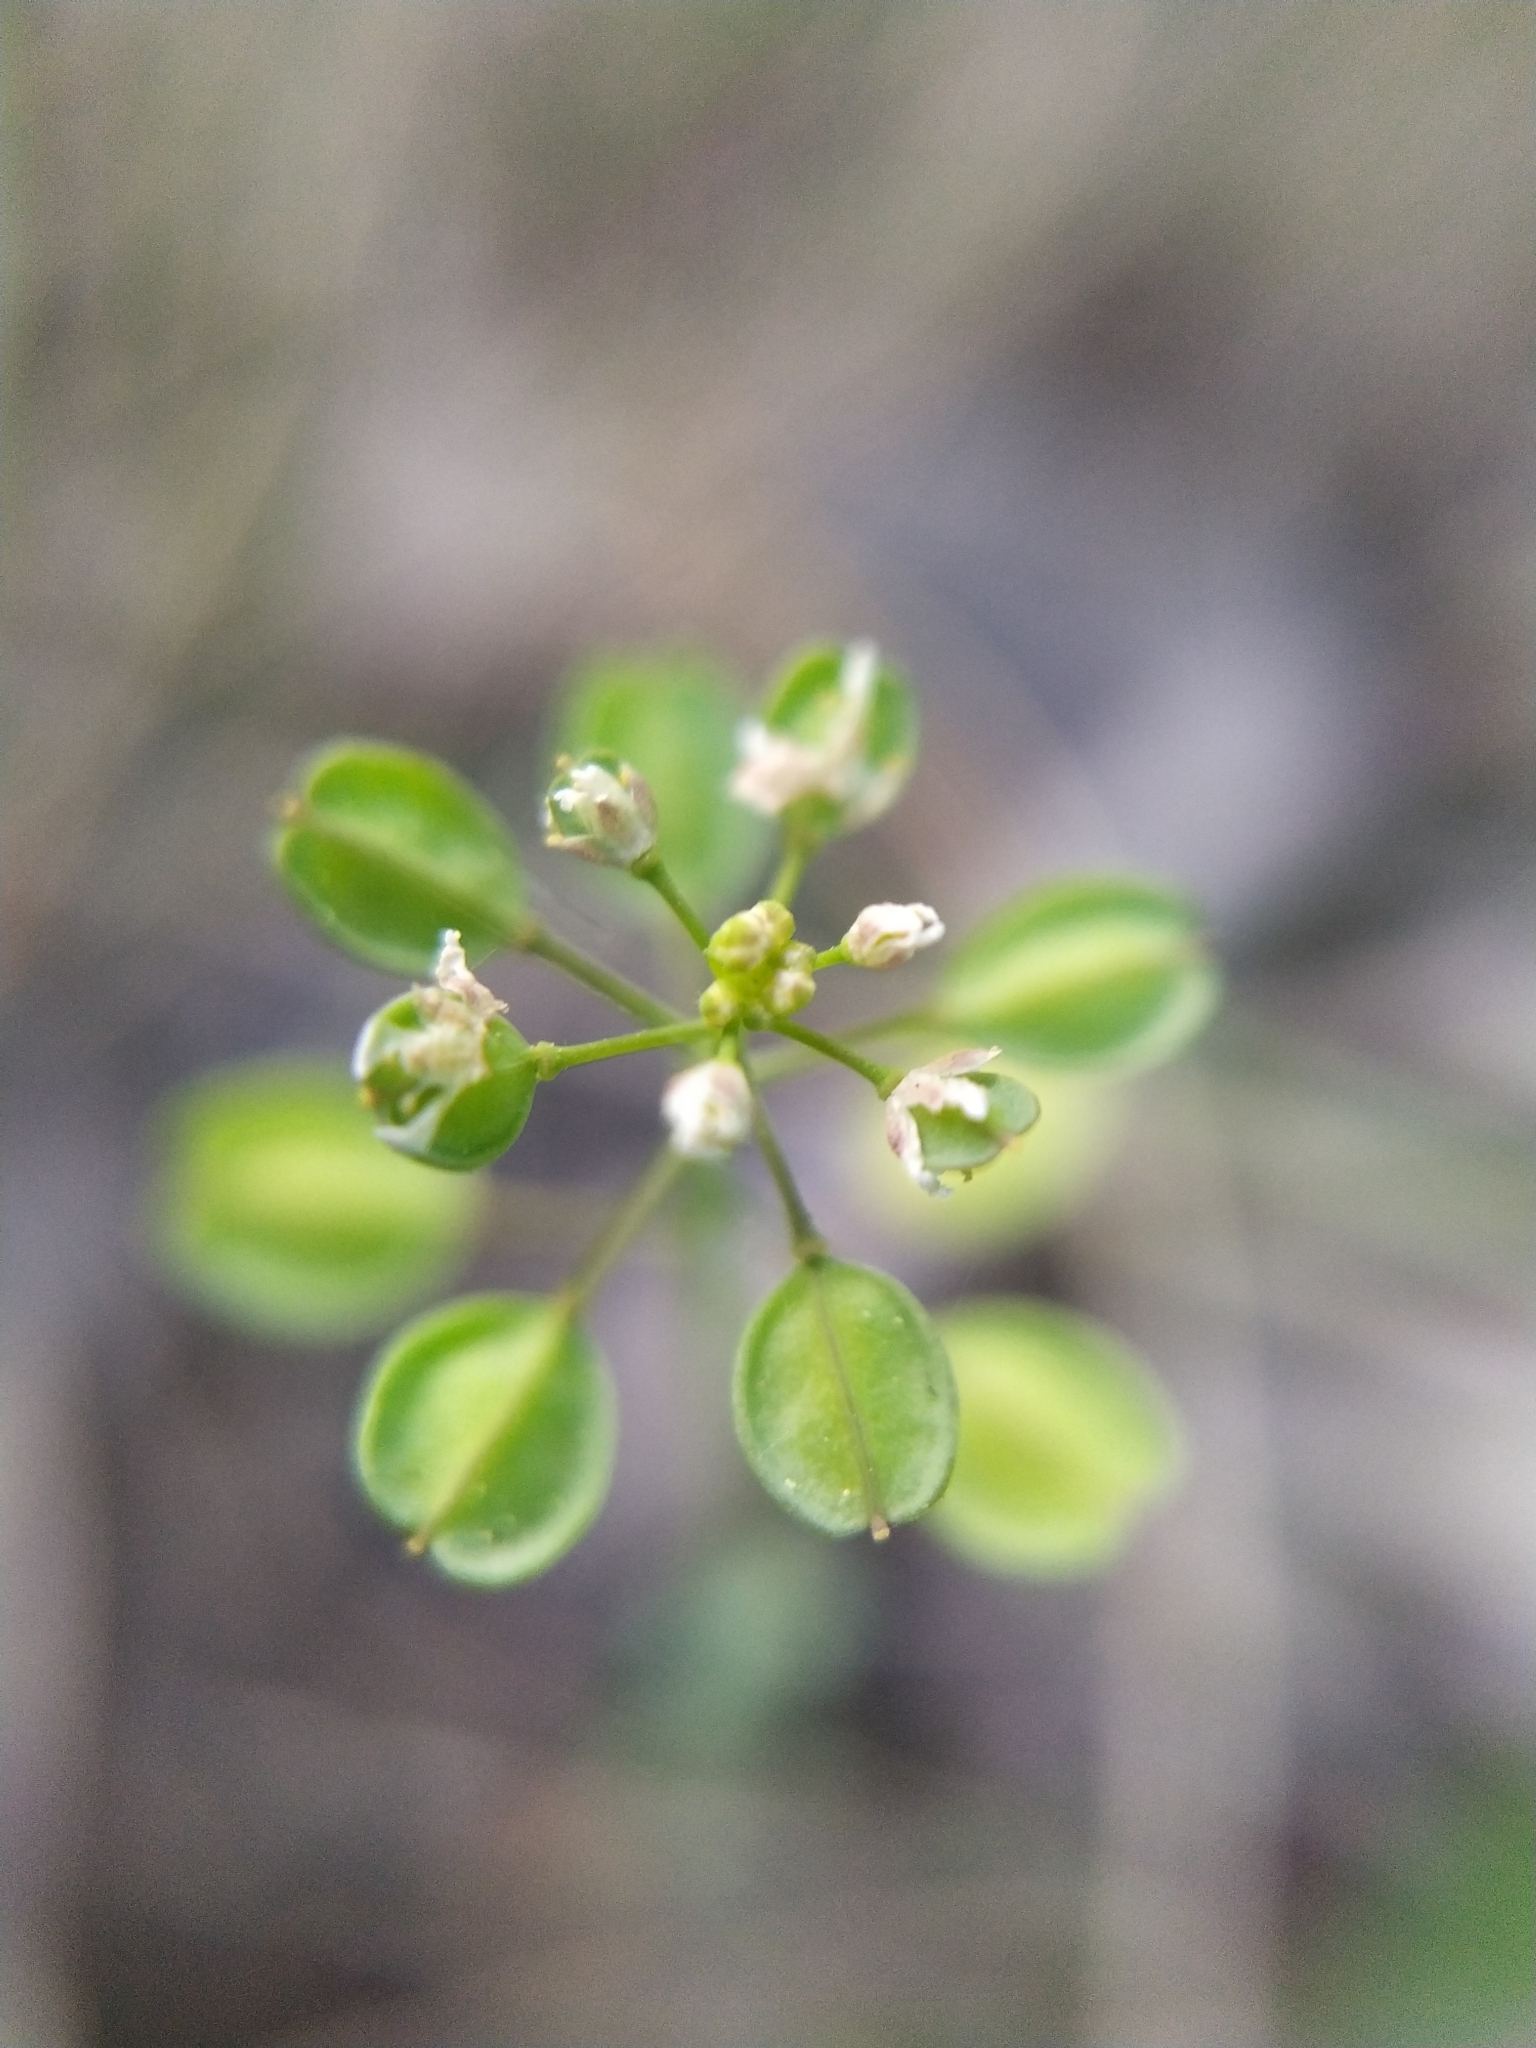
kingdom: Plantae
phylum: Tracheophyta
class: Magnoliopsida
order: Brassicales
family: Brassicaceae
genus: Noccaea
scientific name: Noccaea perfoliata
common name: Perfoliate pennycress
